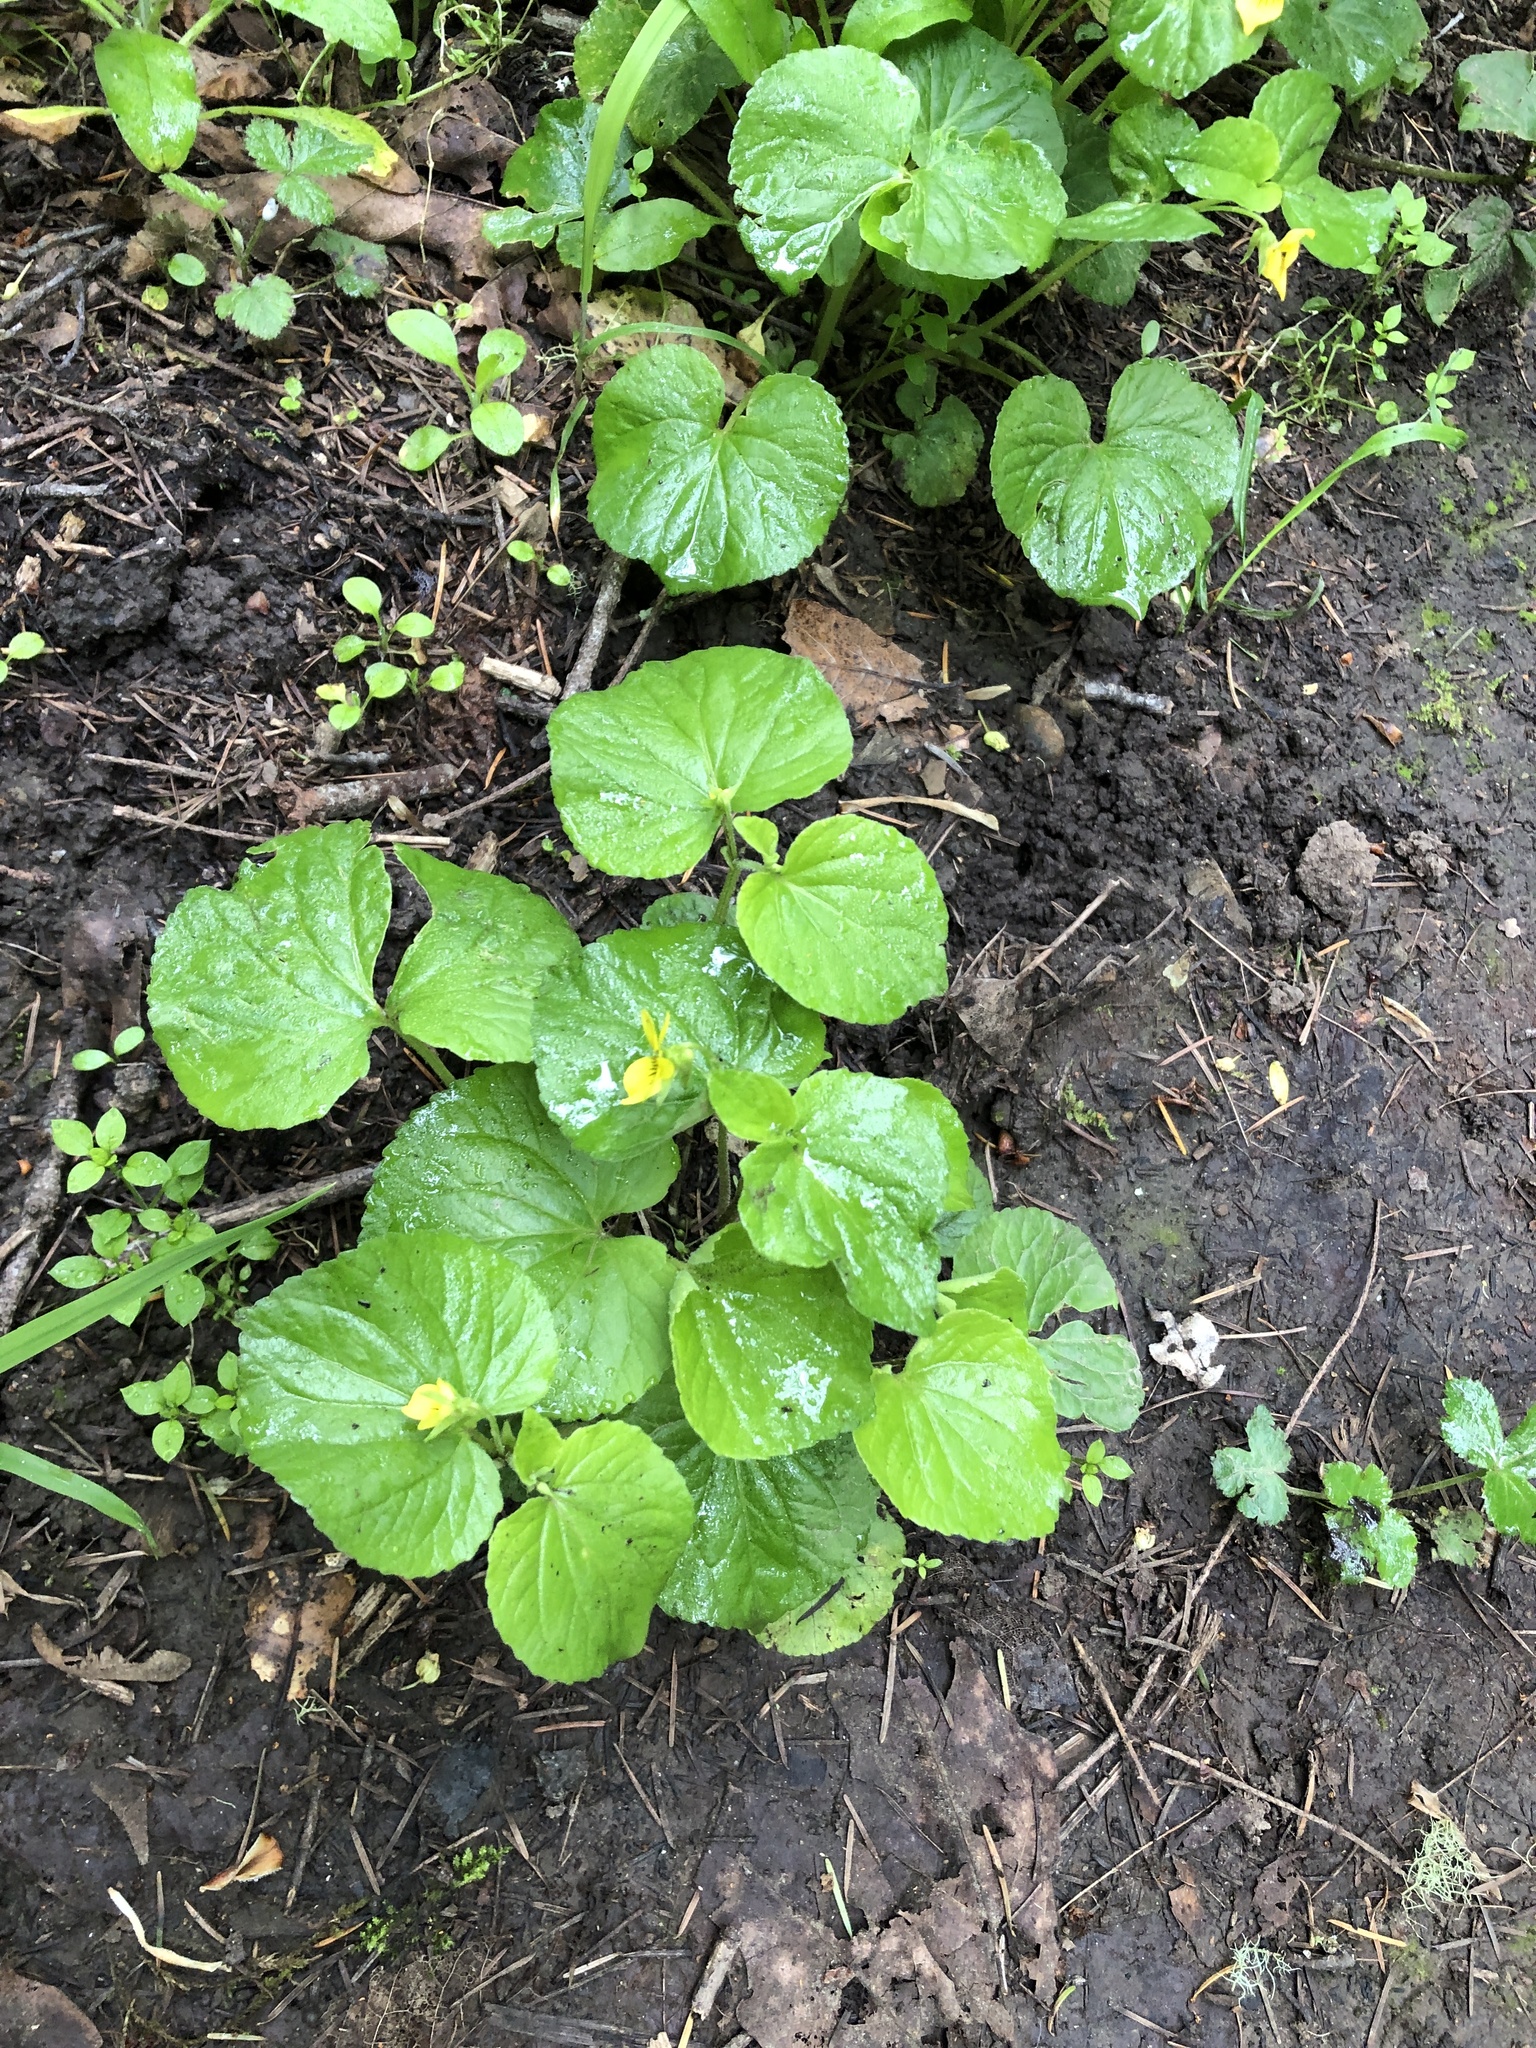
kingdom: Plantae
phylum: Tracheophyta
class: Magnoliopsida
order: Malpighiales
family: Violaceae
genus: Viola
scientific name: Viola glabella
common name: Stream violet
